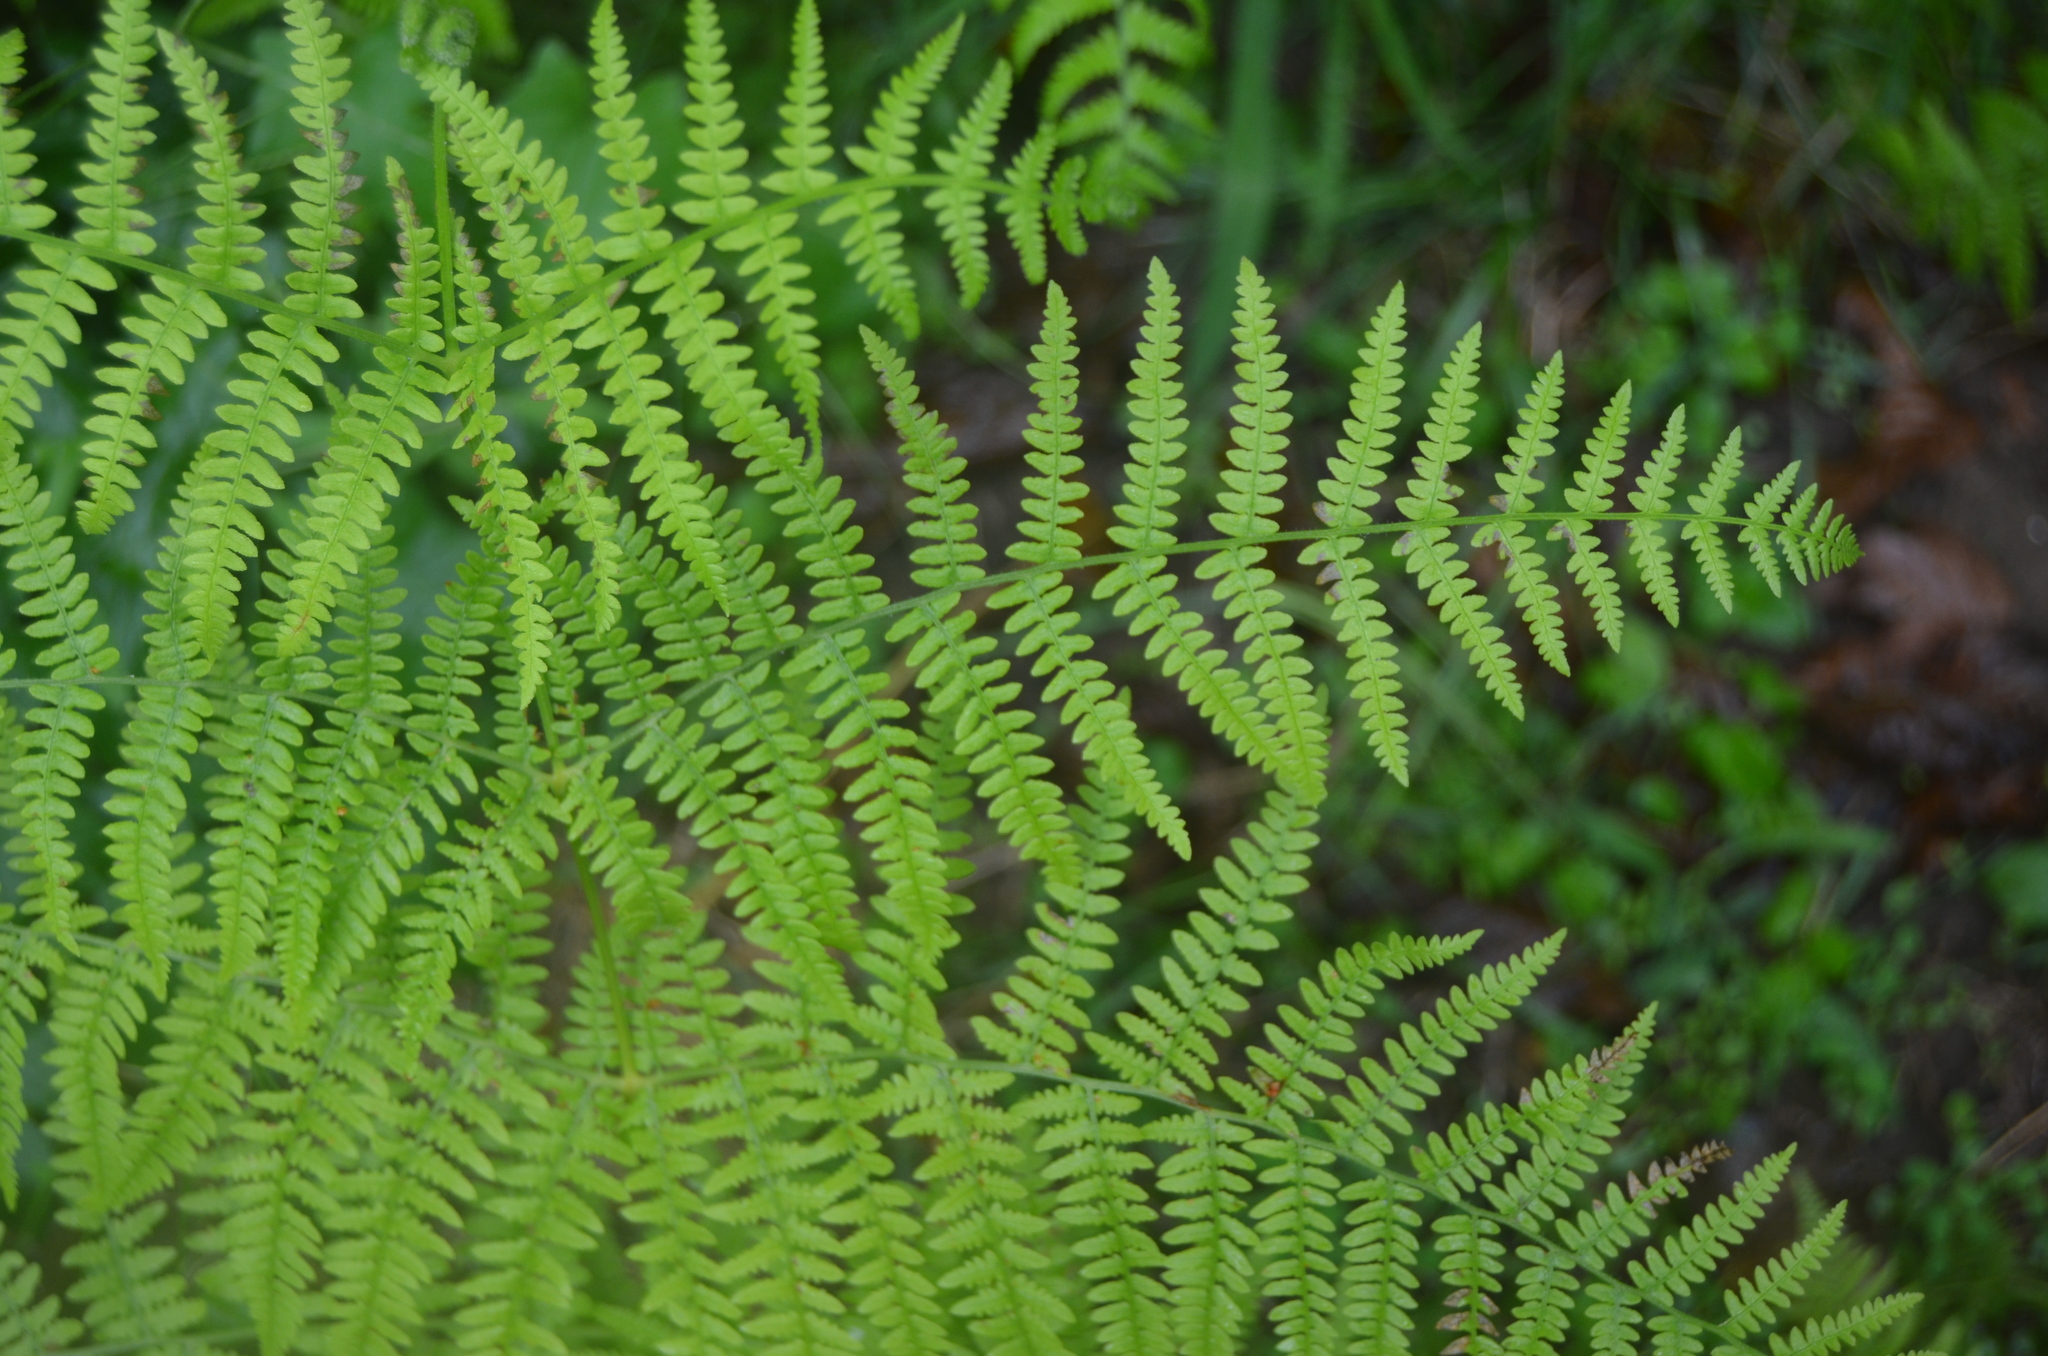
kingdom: Plantae
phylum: Tracheophyta
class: Polypodiopsida
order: Polypodiales
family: Dennstaedtiaceae
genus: Pteridium
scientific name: Pteridium aquilinum
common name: Bracken
